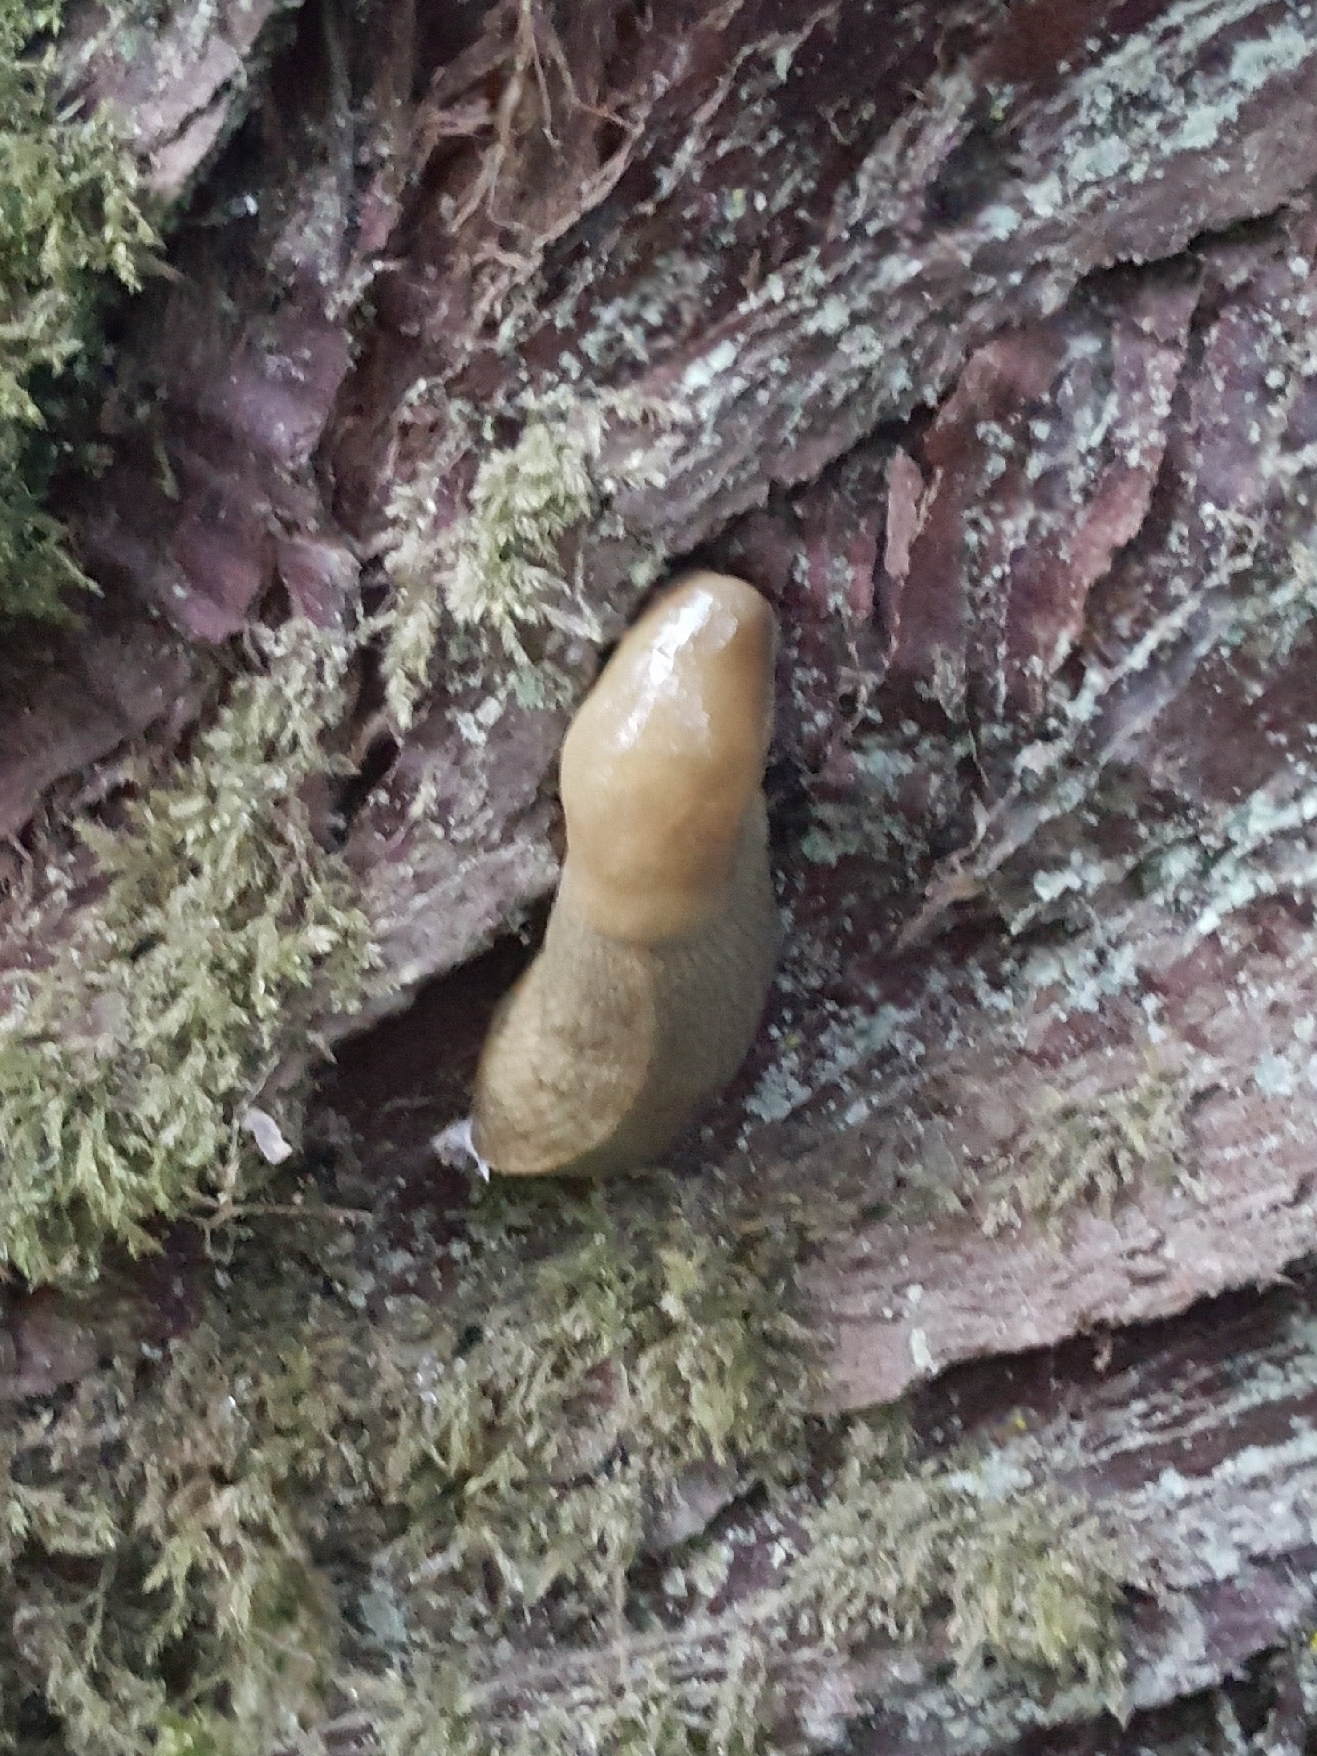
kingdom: Animalia
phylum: Mollusca
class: Gastropoda
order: Stylommatophora
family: Ariolimacidae
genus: Ariolimax
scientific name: Ariolimax columbianus
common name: Pacific banana slug
